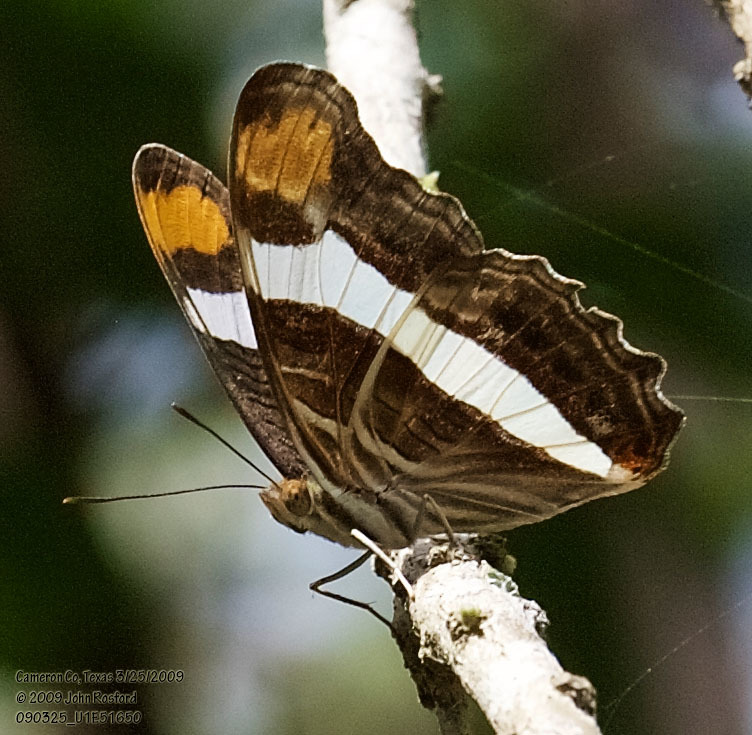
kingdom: Animalia
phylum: Arthropoda
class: Insecta
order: Lepidoptera
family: Nymphalidae
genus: Limenitis
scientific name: Limenitis fessonia
